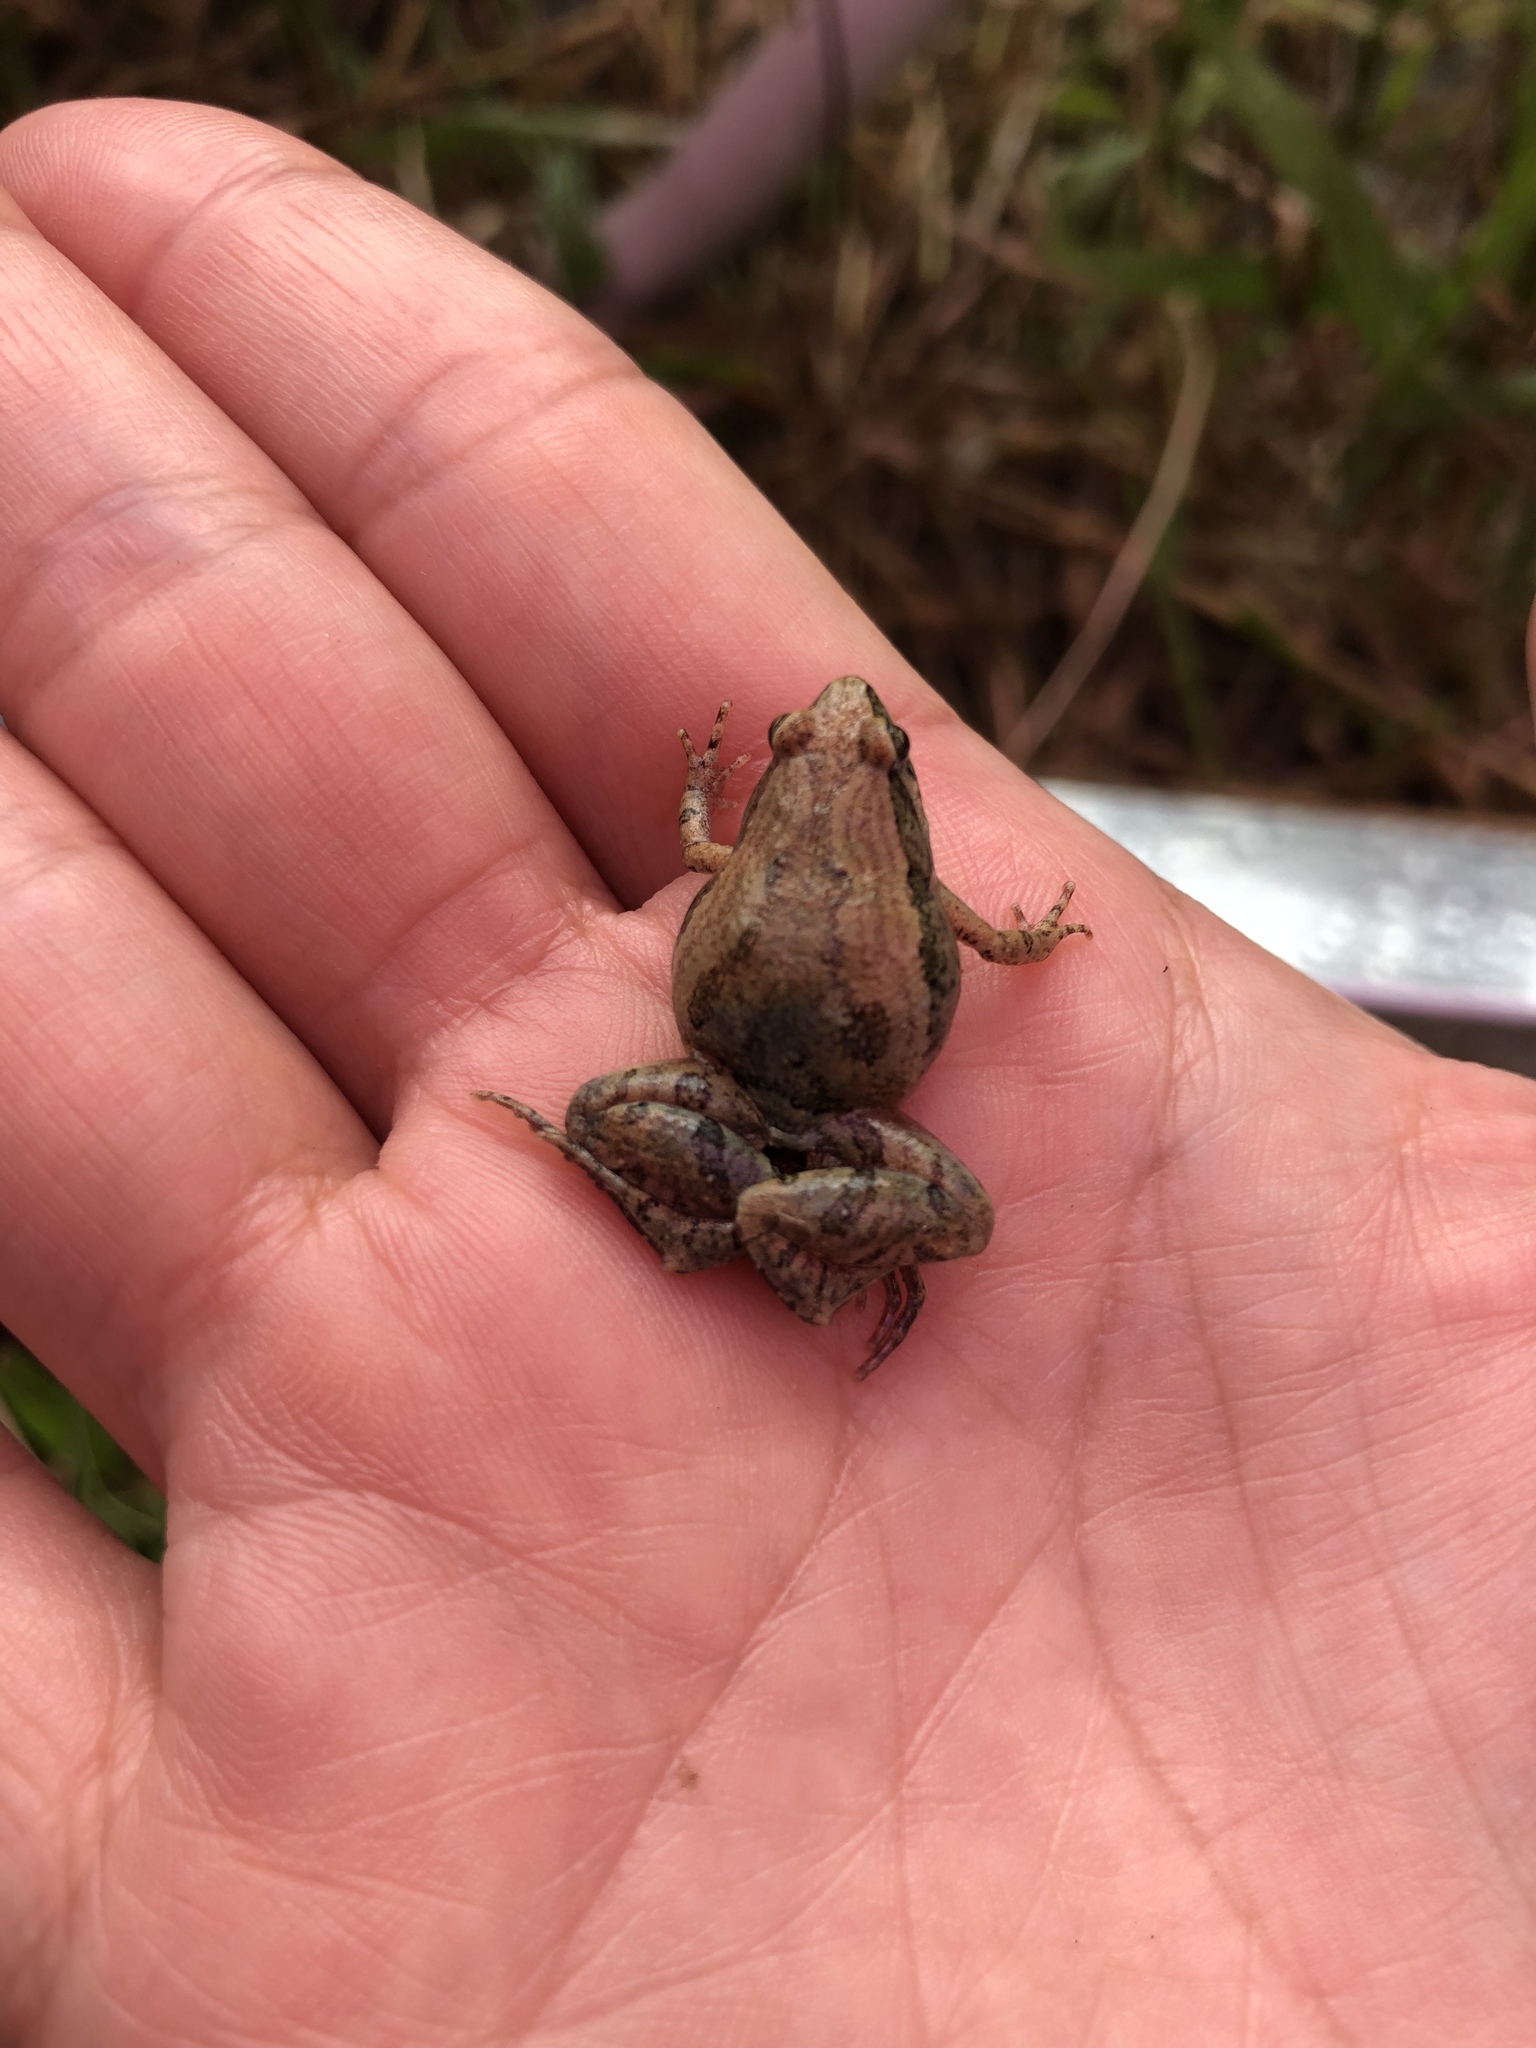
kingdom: Animalia
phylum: Chordata
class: Amphibia
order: Anura
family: Microhylidae
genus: Microhyla
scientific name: Microhyla fissipes
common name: Ornate narrow-mouthed frog
